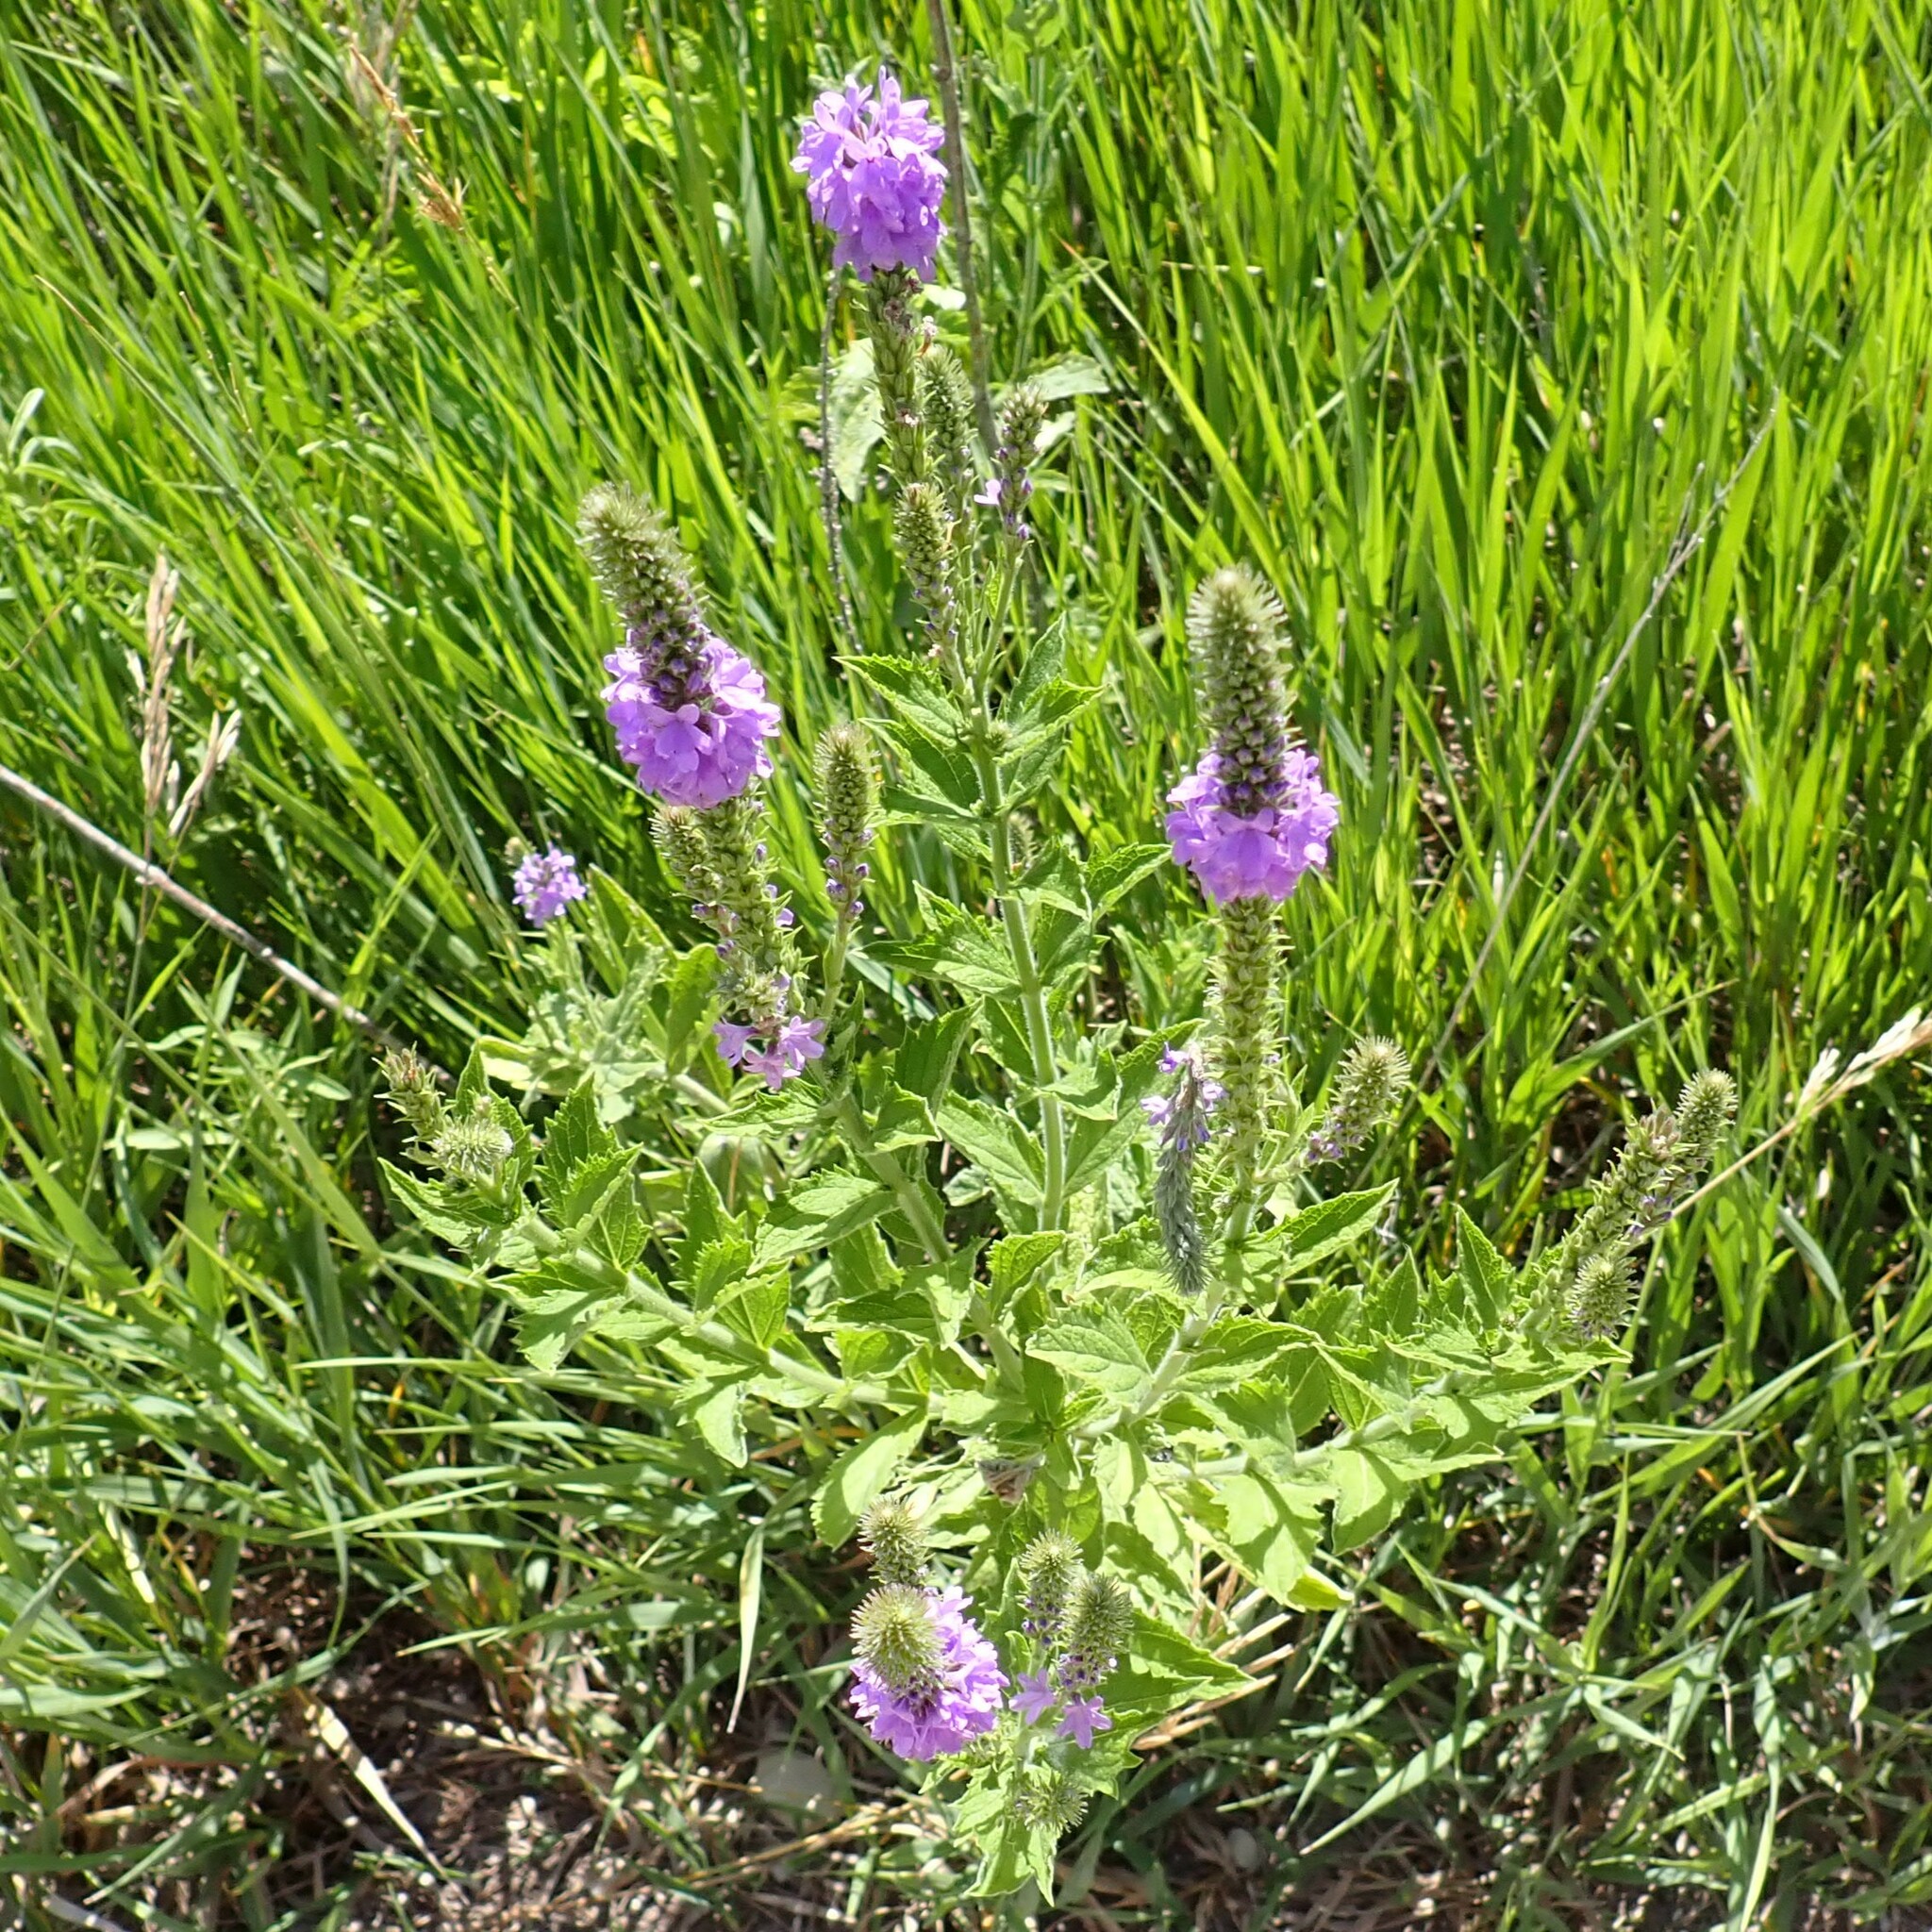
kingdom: Plantae
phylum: Tracheophyta
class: Magnoliopsida
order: Lamiales
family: Verbenaceae
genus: Verbena
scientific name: Verbena stricta
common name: Hoary vervain
